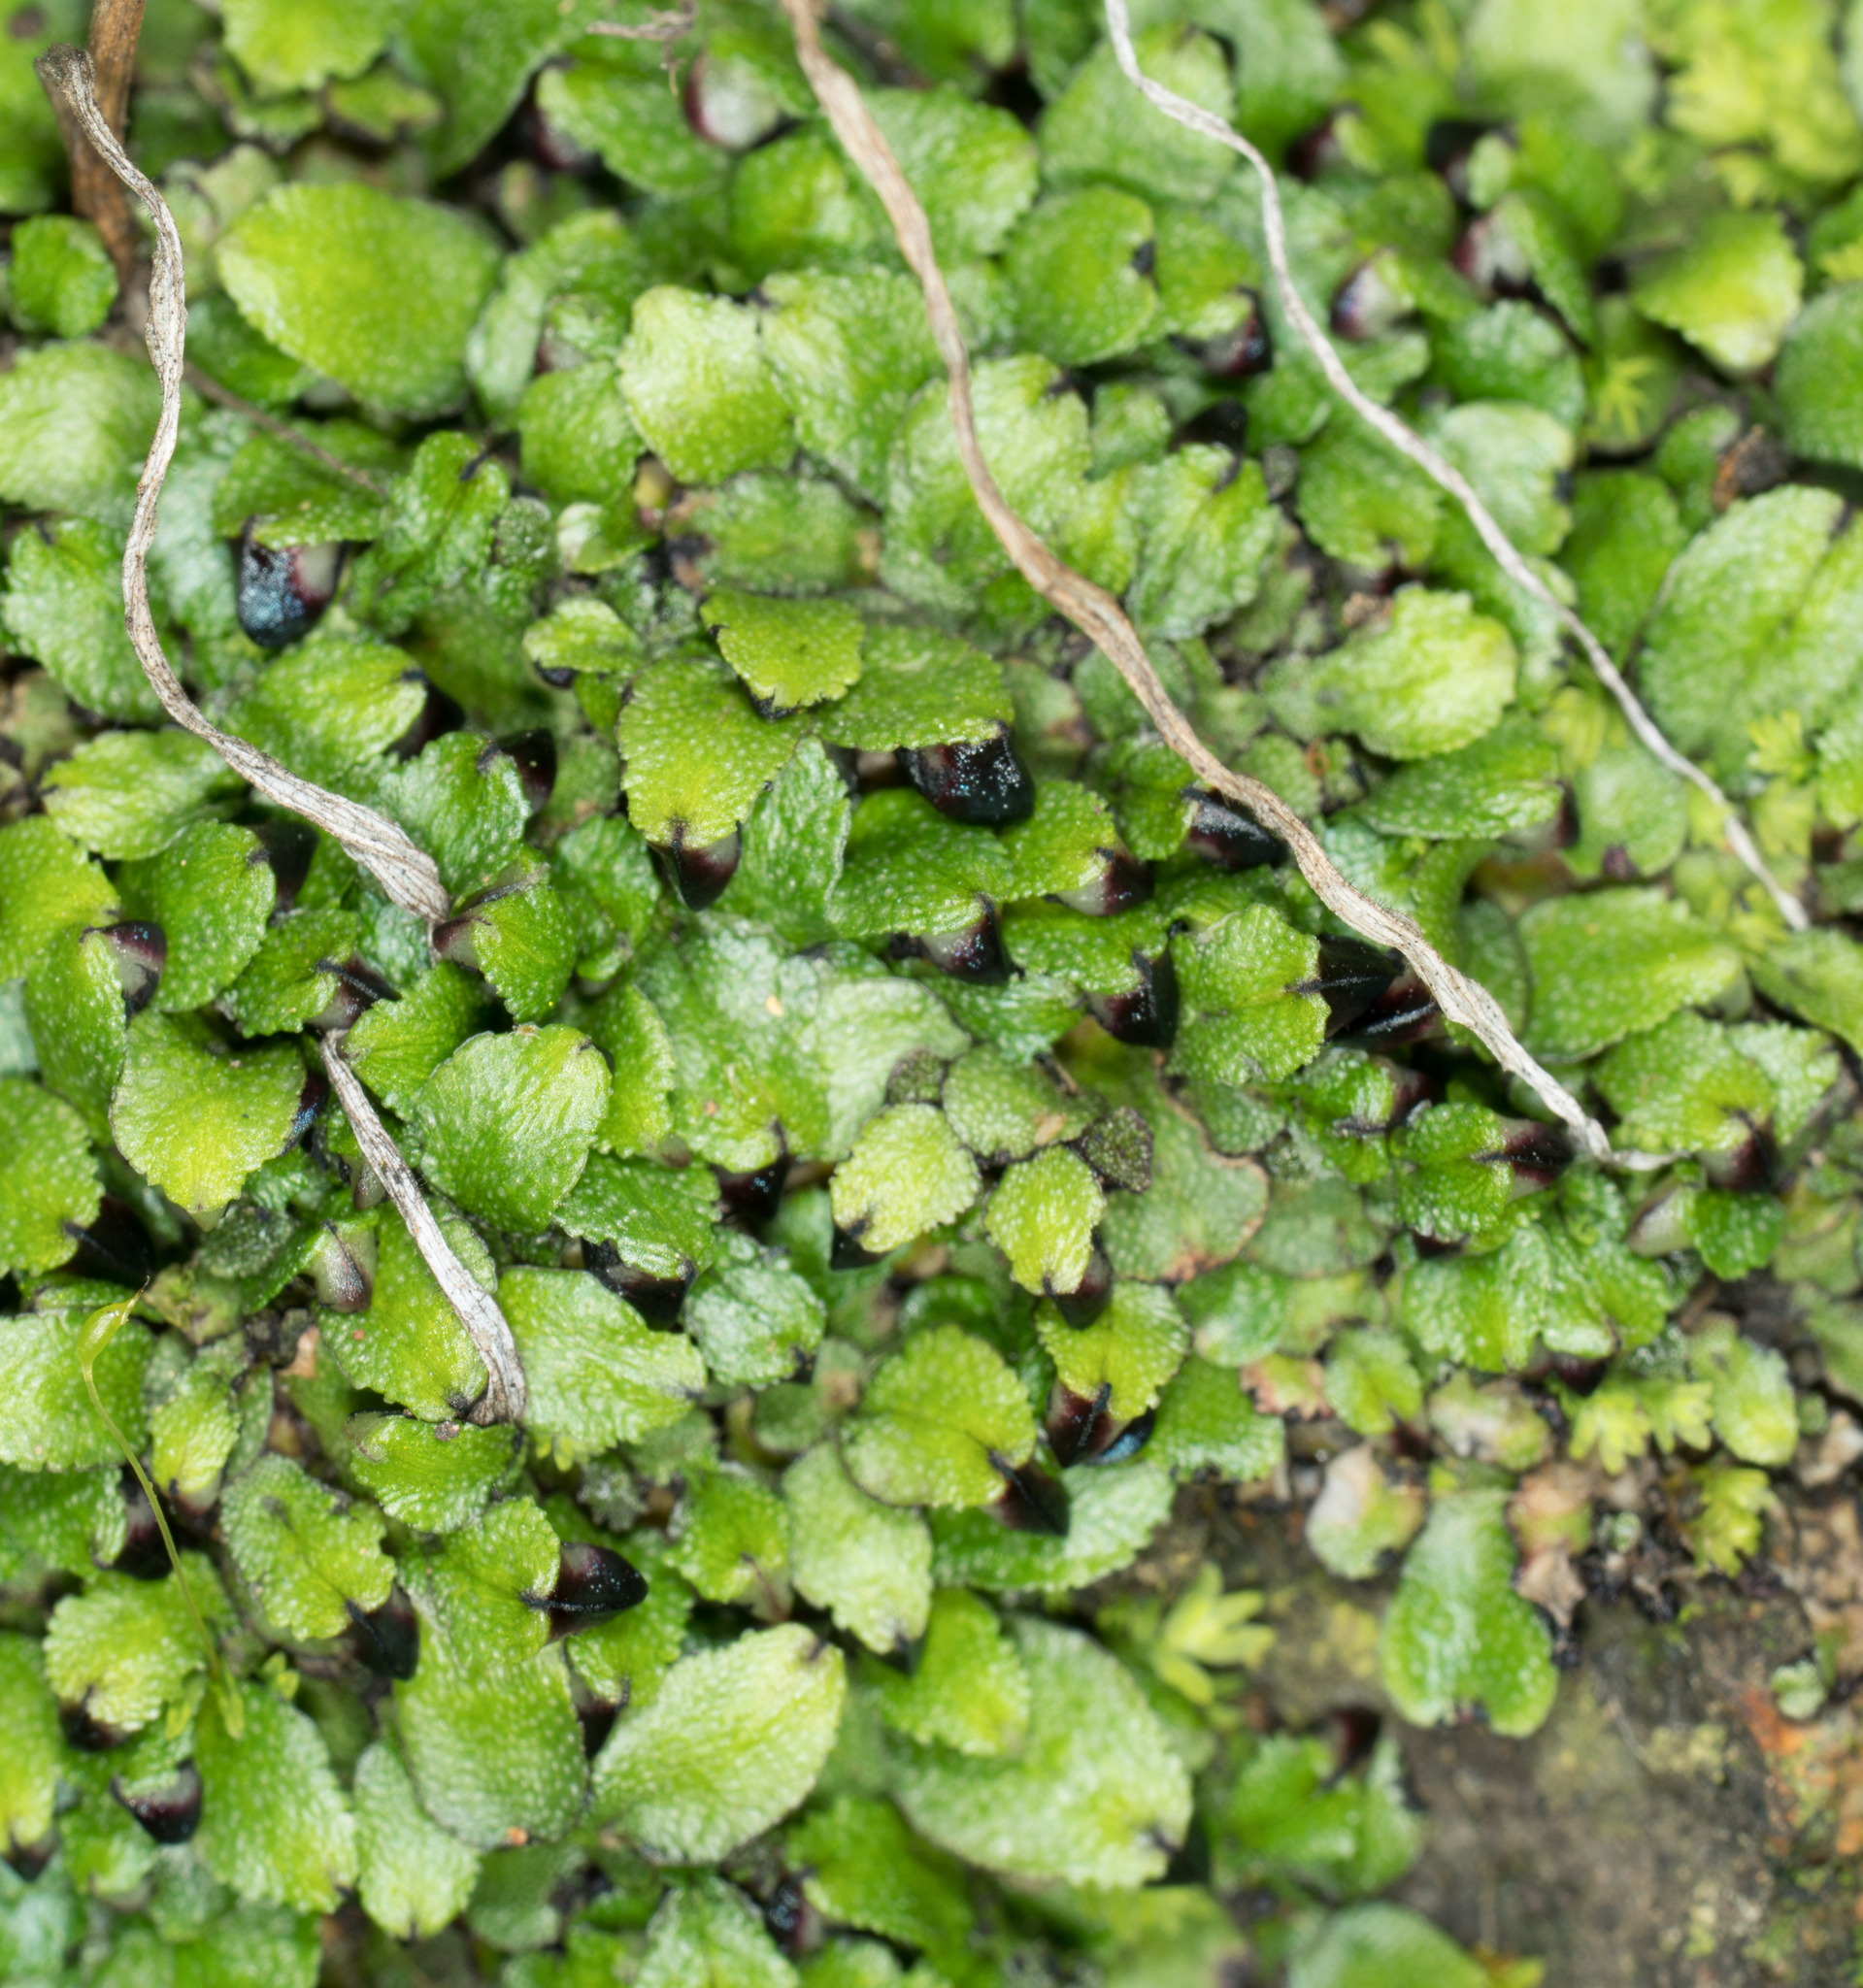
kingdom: Plantae
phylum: Marchantiophyta
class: Marchantiopsida
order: Marchantiales
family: Targioniaceae
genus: Targionia
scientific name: Targionia hypophylla
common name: Orobus-seed liverwort
